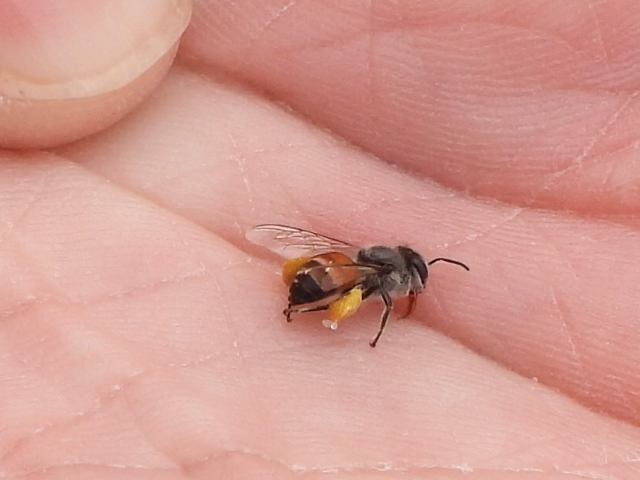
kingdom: Animalia
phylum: Arthropoda
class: Insecta
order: Hymenoptera
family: Apidae
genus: Apis
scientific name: Apis florea
